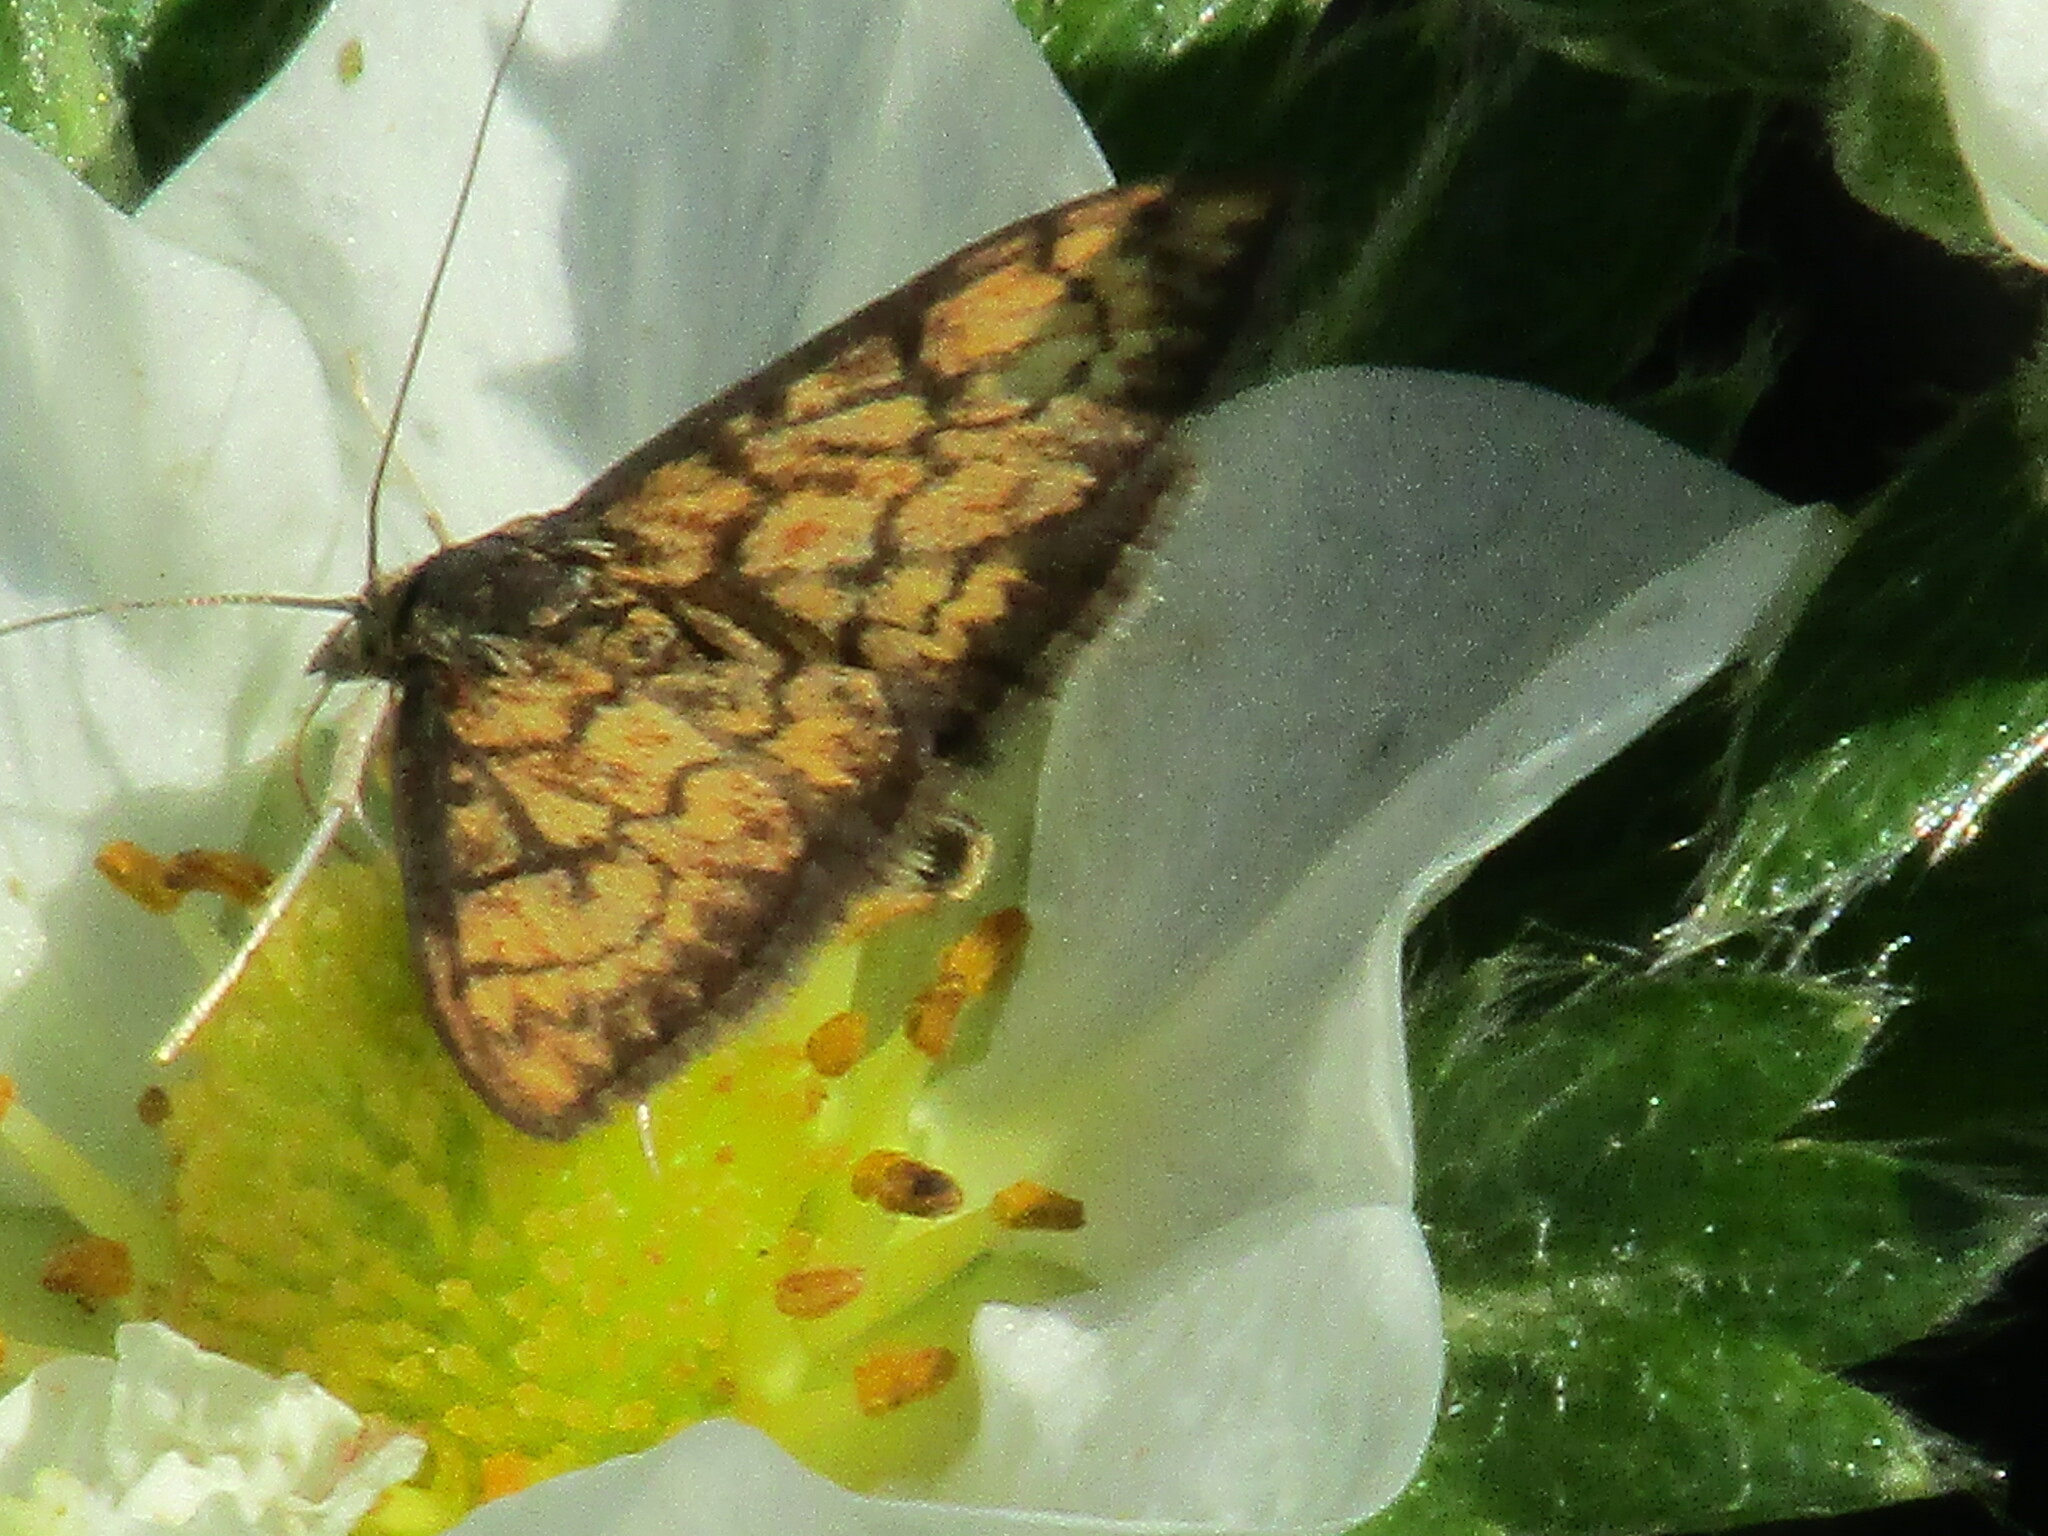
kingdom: Animalia
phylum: Arthropoda
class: Insecta
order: Lepidoptera
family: Crambidae
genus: Ecpyrrhorrhoe
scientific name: Ecpyrrhorrhoe rubiginalis
